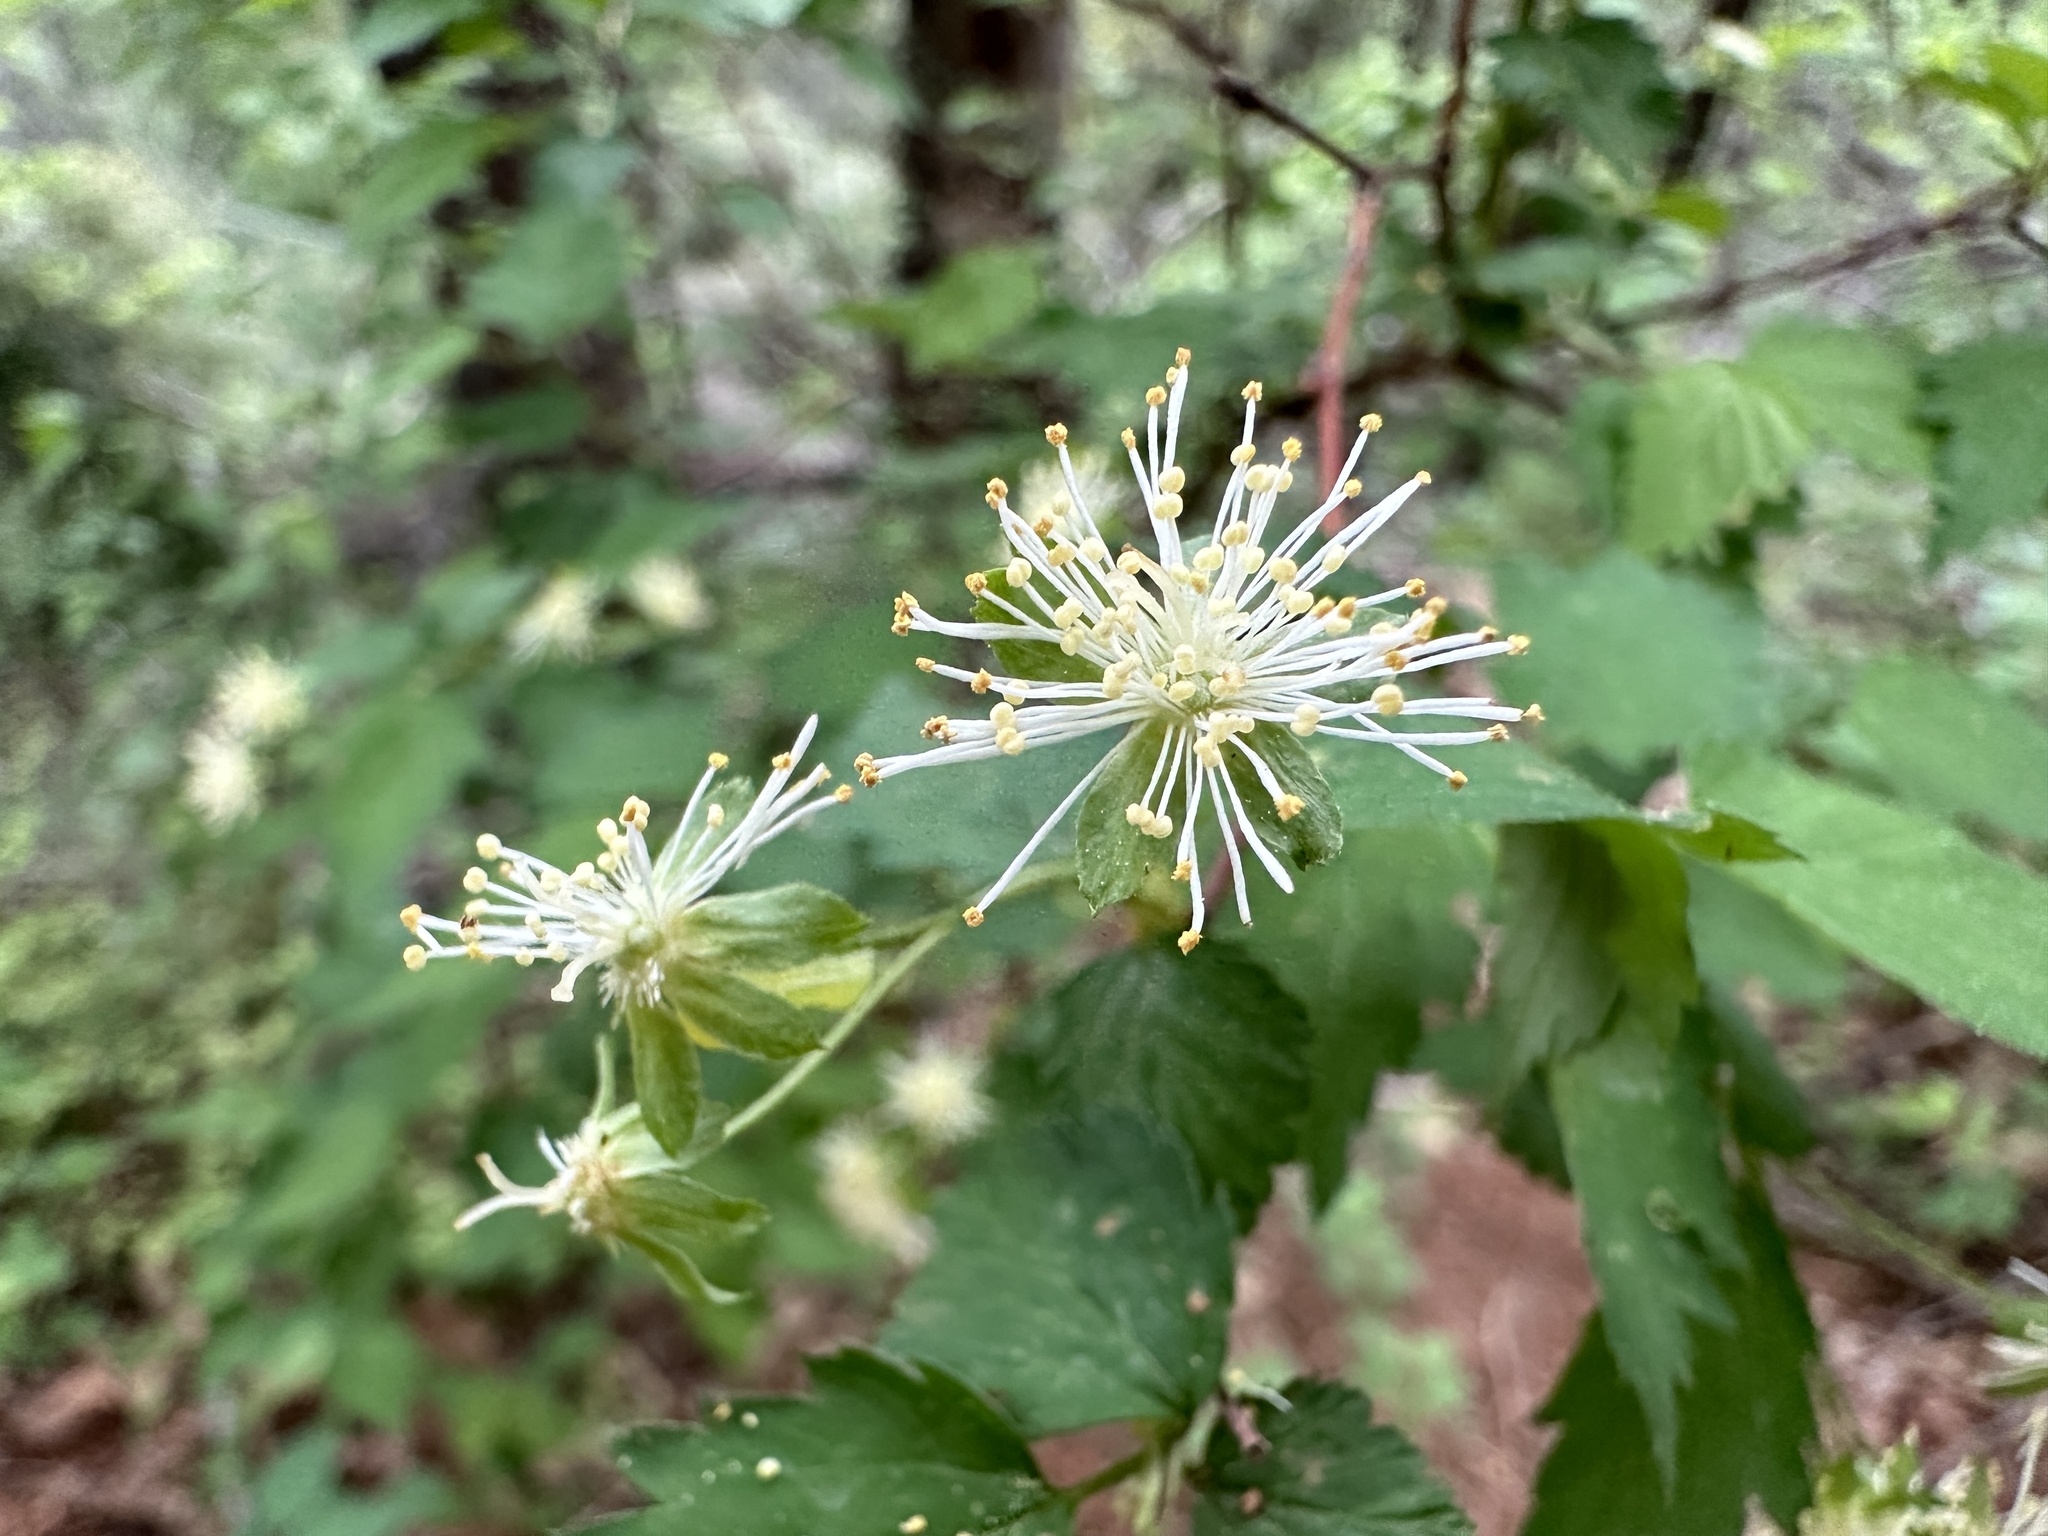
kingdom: Plantae
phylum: Tracheophyta
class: Magnoliopsida
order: Rosales
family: Rosaceae
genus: Neviusia
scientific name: Neviusia cliftonii
